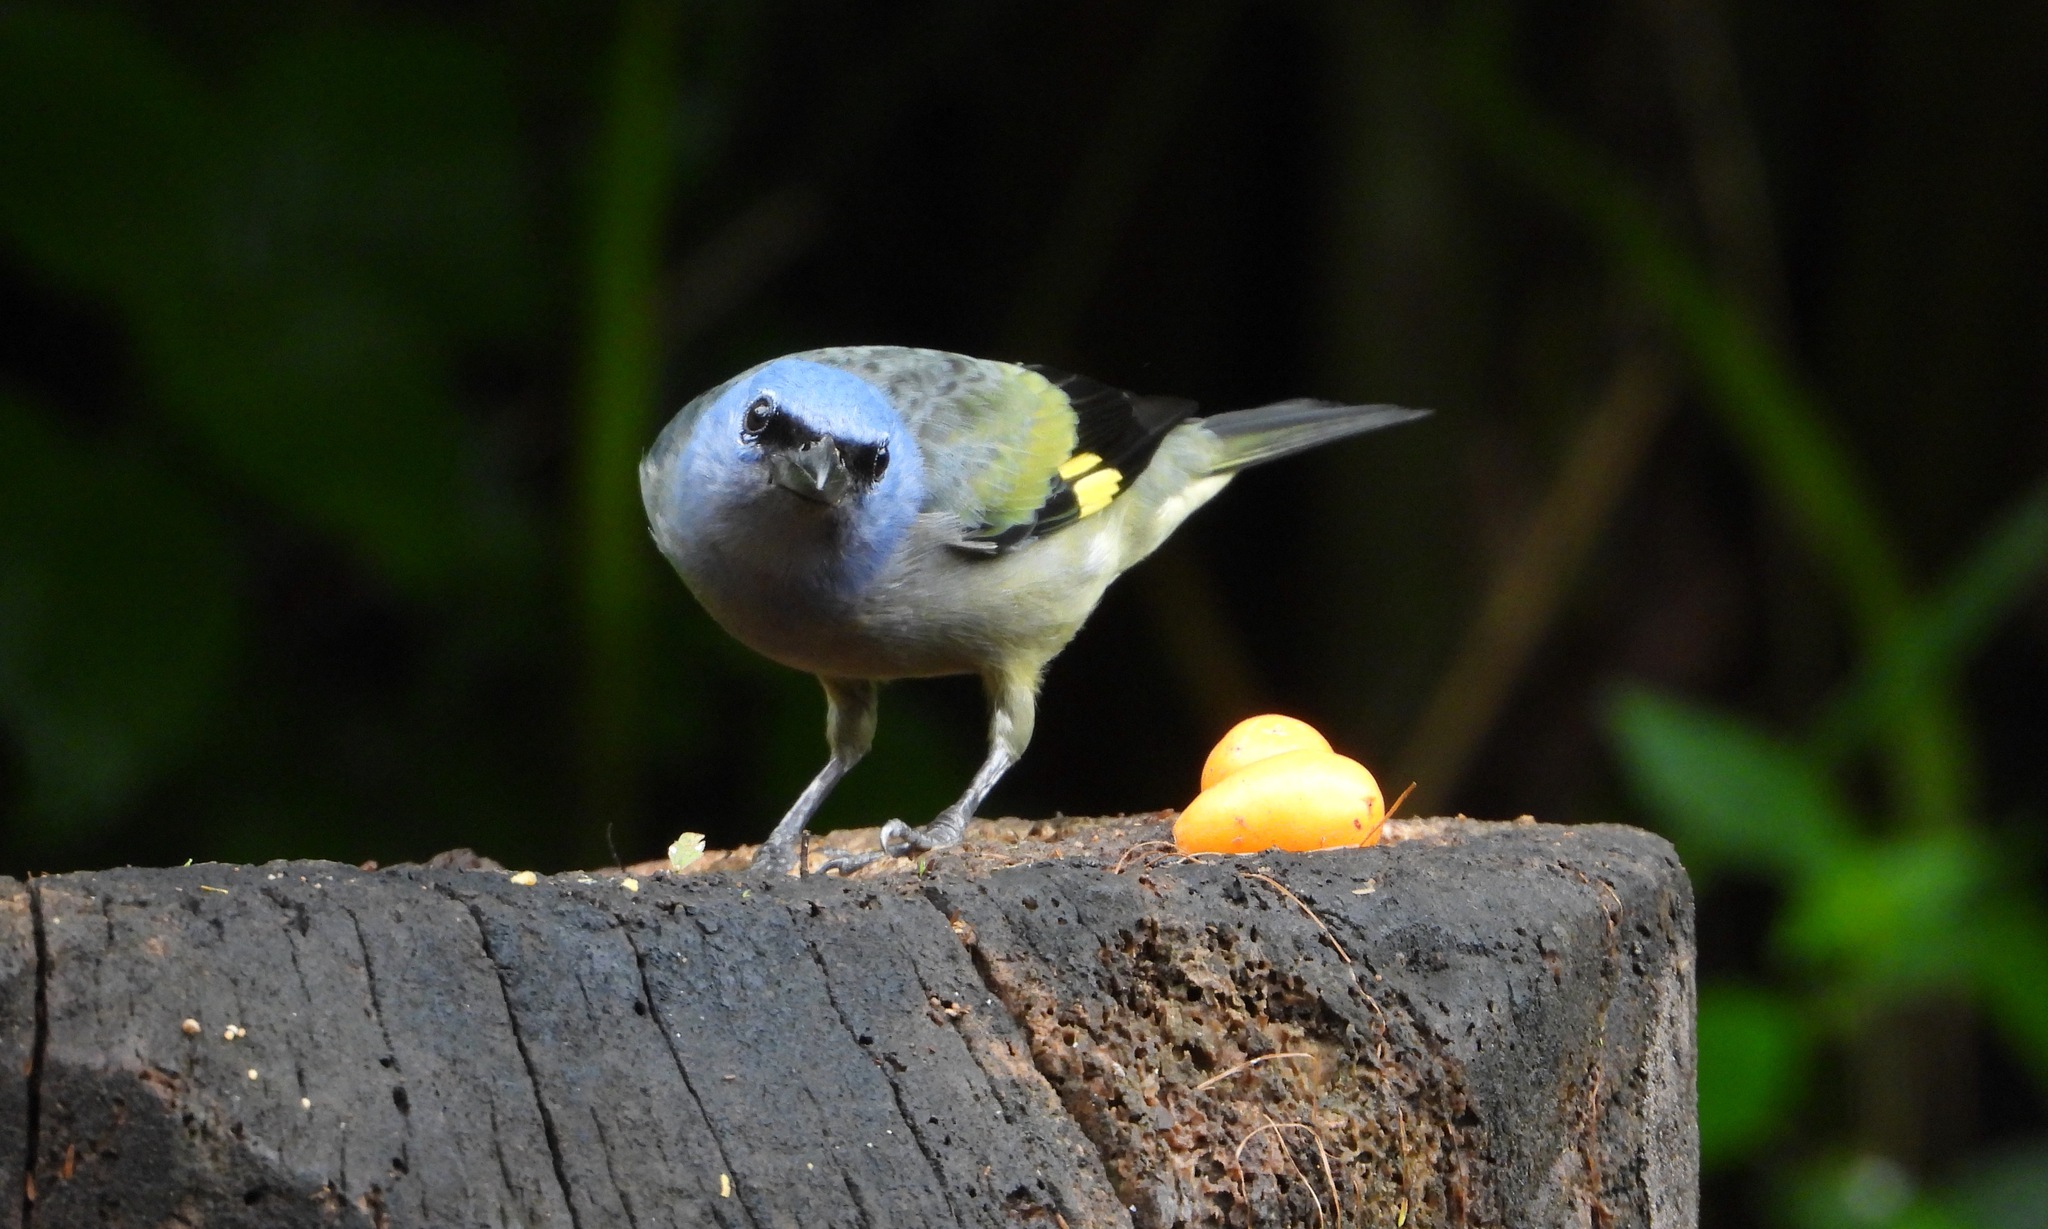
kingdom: Animalia
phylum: Chordata
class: Aves
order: Passeriformes
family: Thraupidae
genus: Thraupis
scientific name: Thraupis abbas
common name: Yellow-winged tanager
